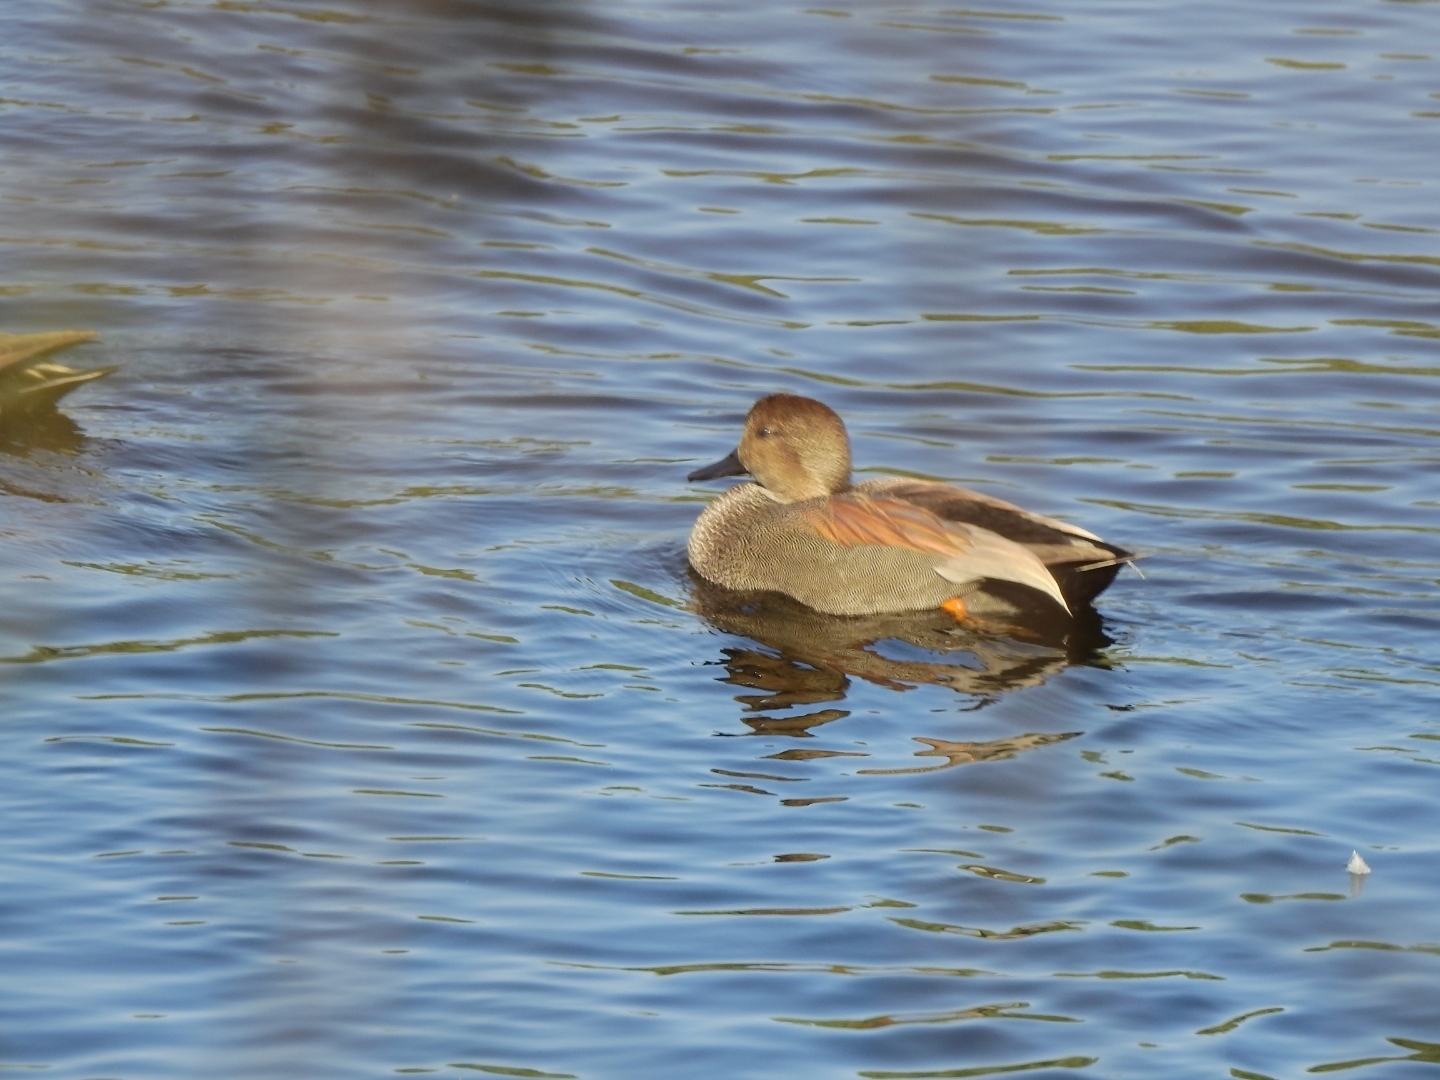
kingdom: Animalia
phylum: Chordata
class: Aves
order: Anseriformes
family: Anatidae
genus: Mareca
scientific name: Mareca strepera
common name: Gadwall
